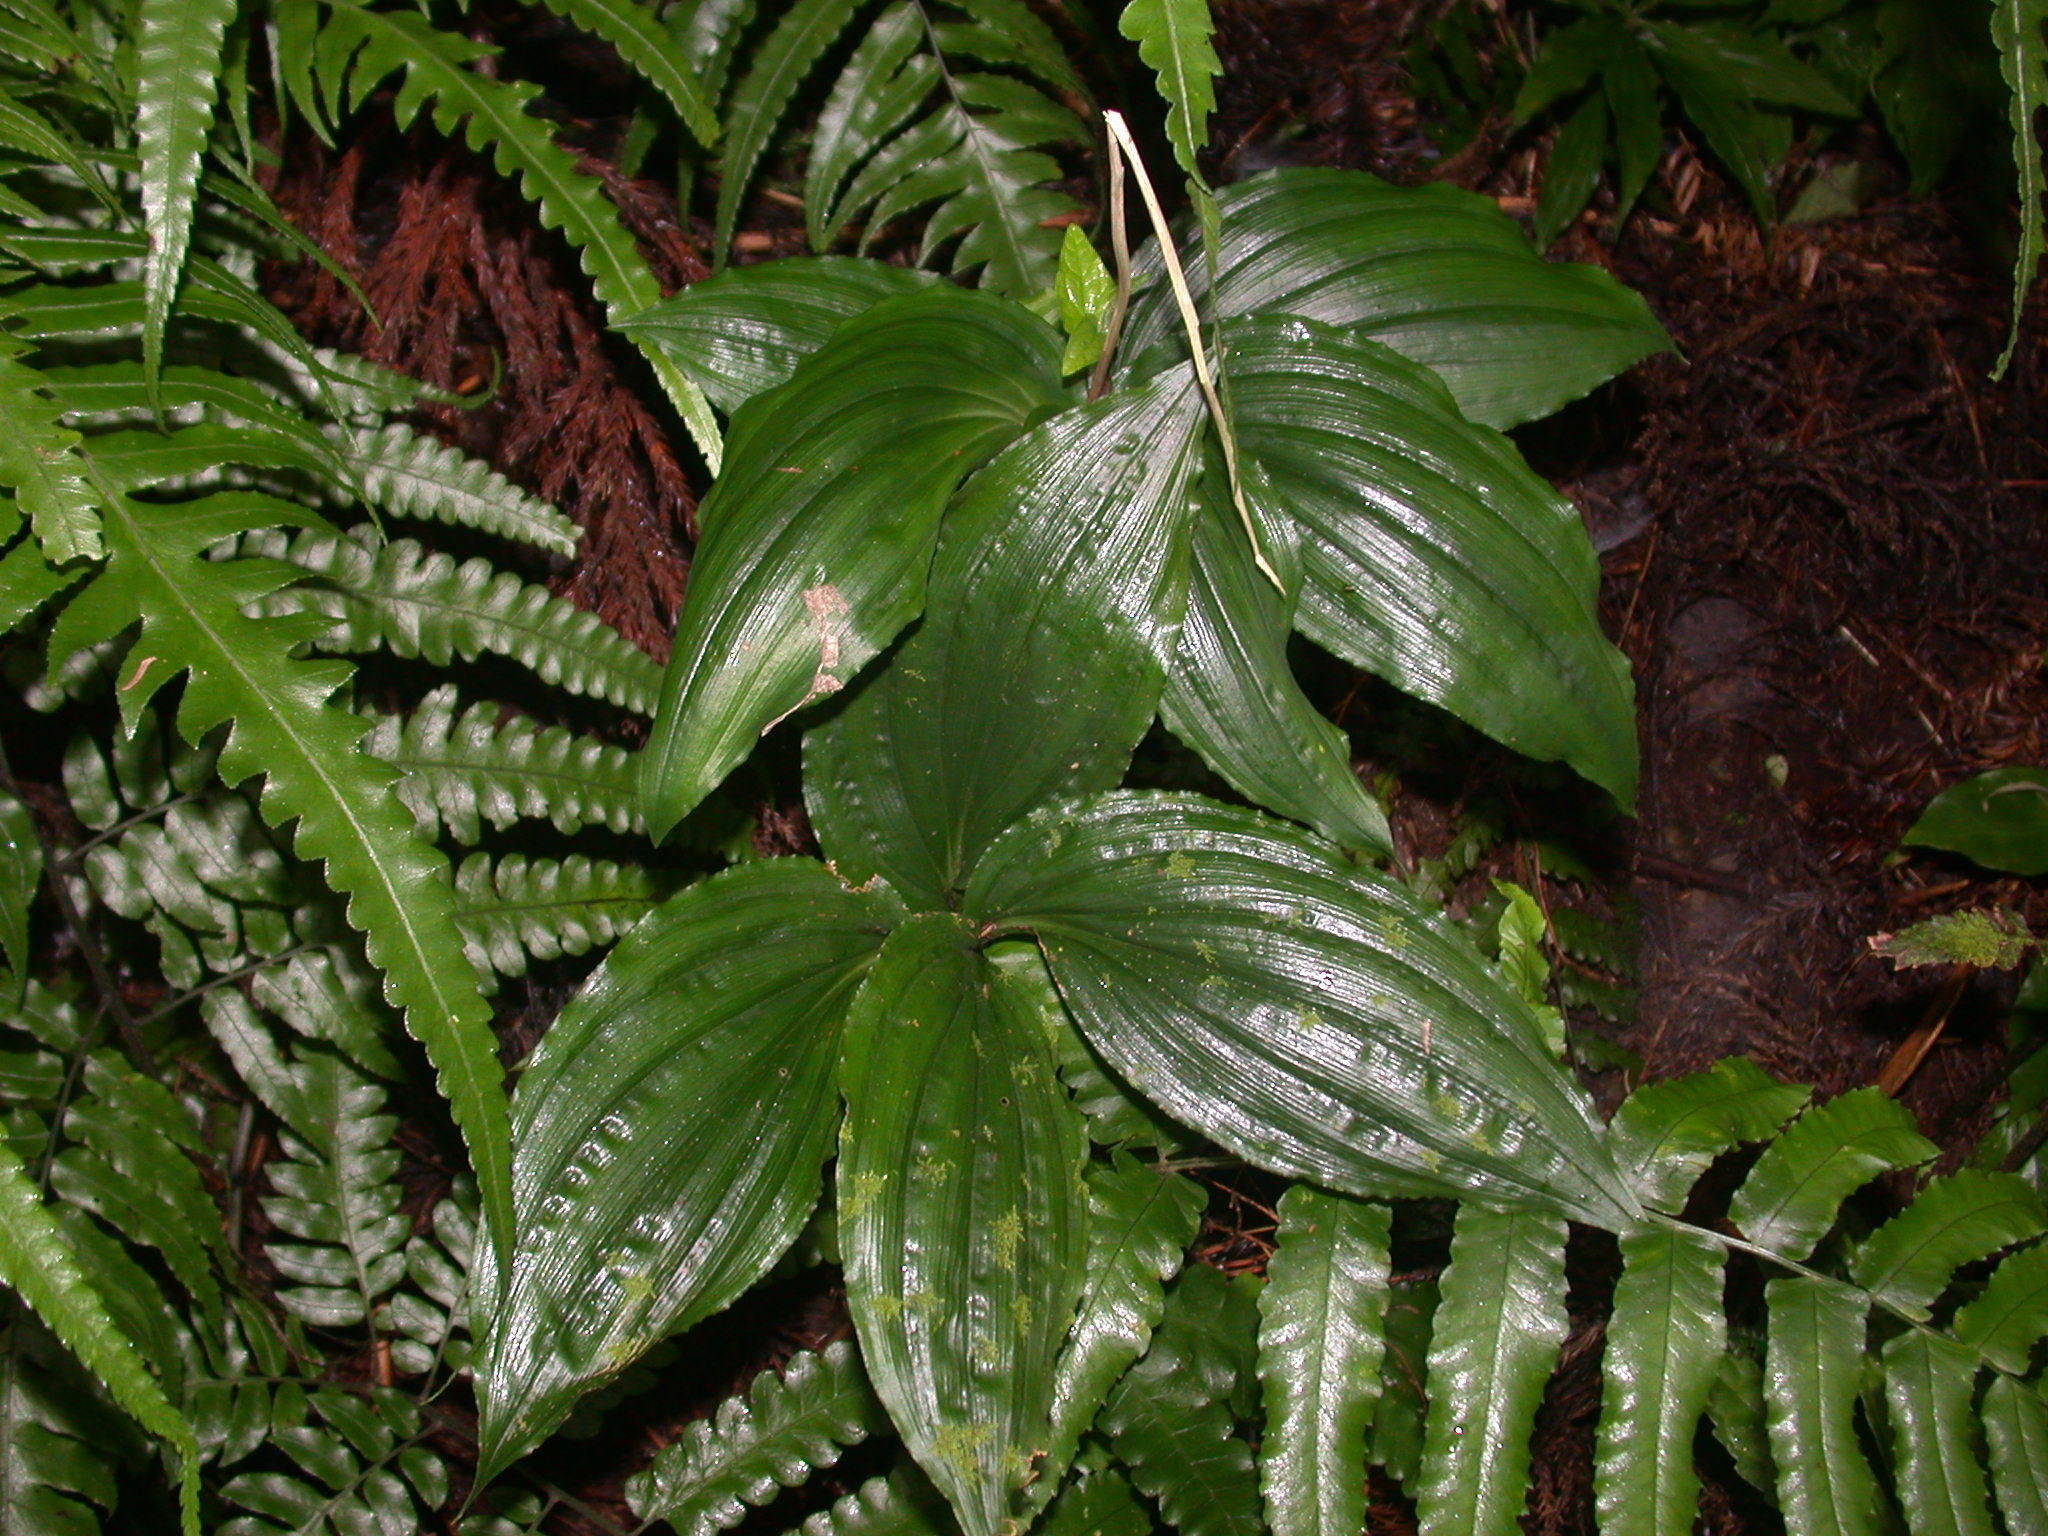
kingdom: Plantae
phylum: Tracheophyta
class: Liliopsida
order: Asparagales
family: Orchidaceae
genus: Liparis
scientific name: Liparis gigantea
